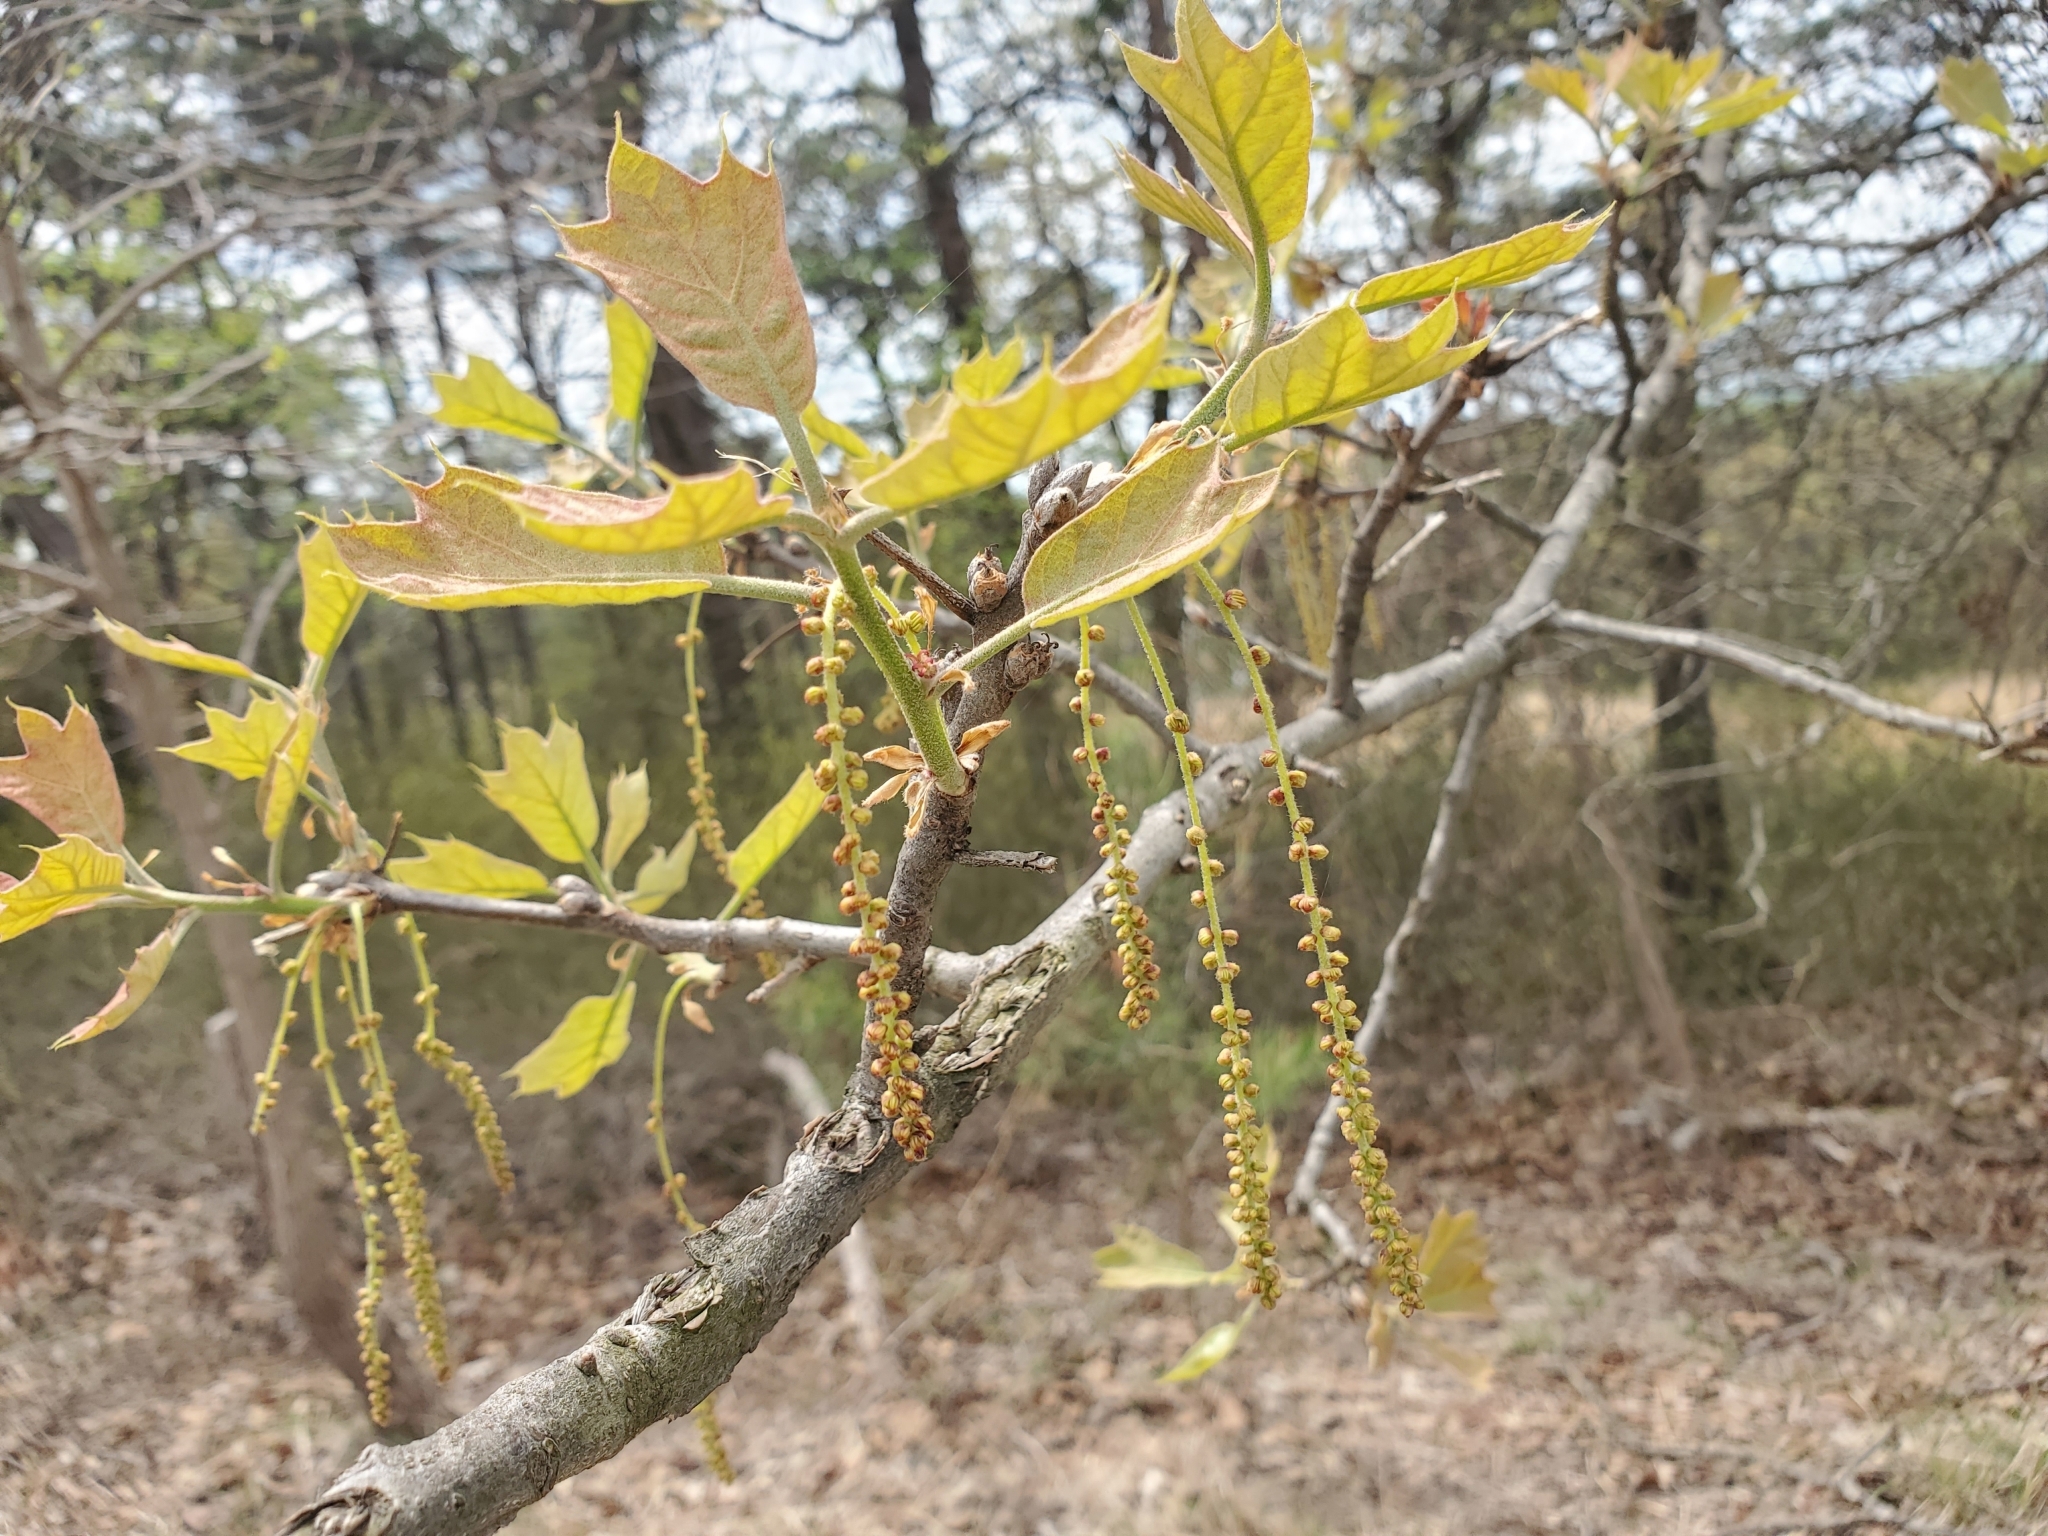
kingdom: Plantae
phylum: Tracheophyta
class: Magnoliopsida
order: Fagales
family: Fagaceae
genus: Quercus
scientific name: Quercus marilandica
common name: Blackjack oak
